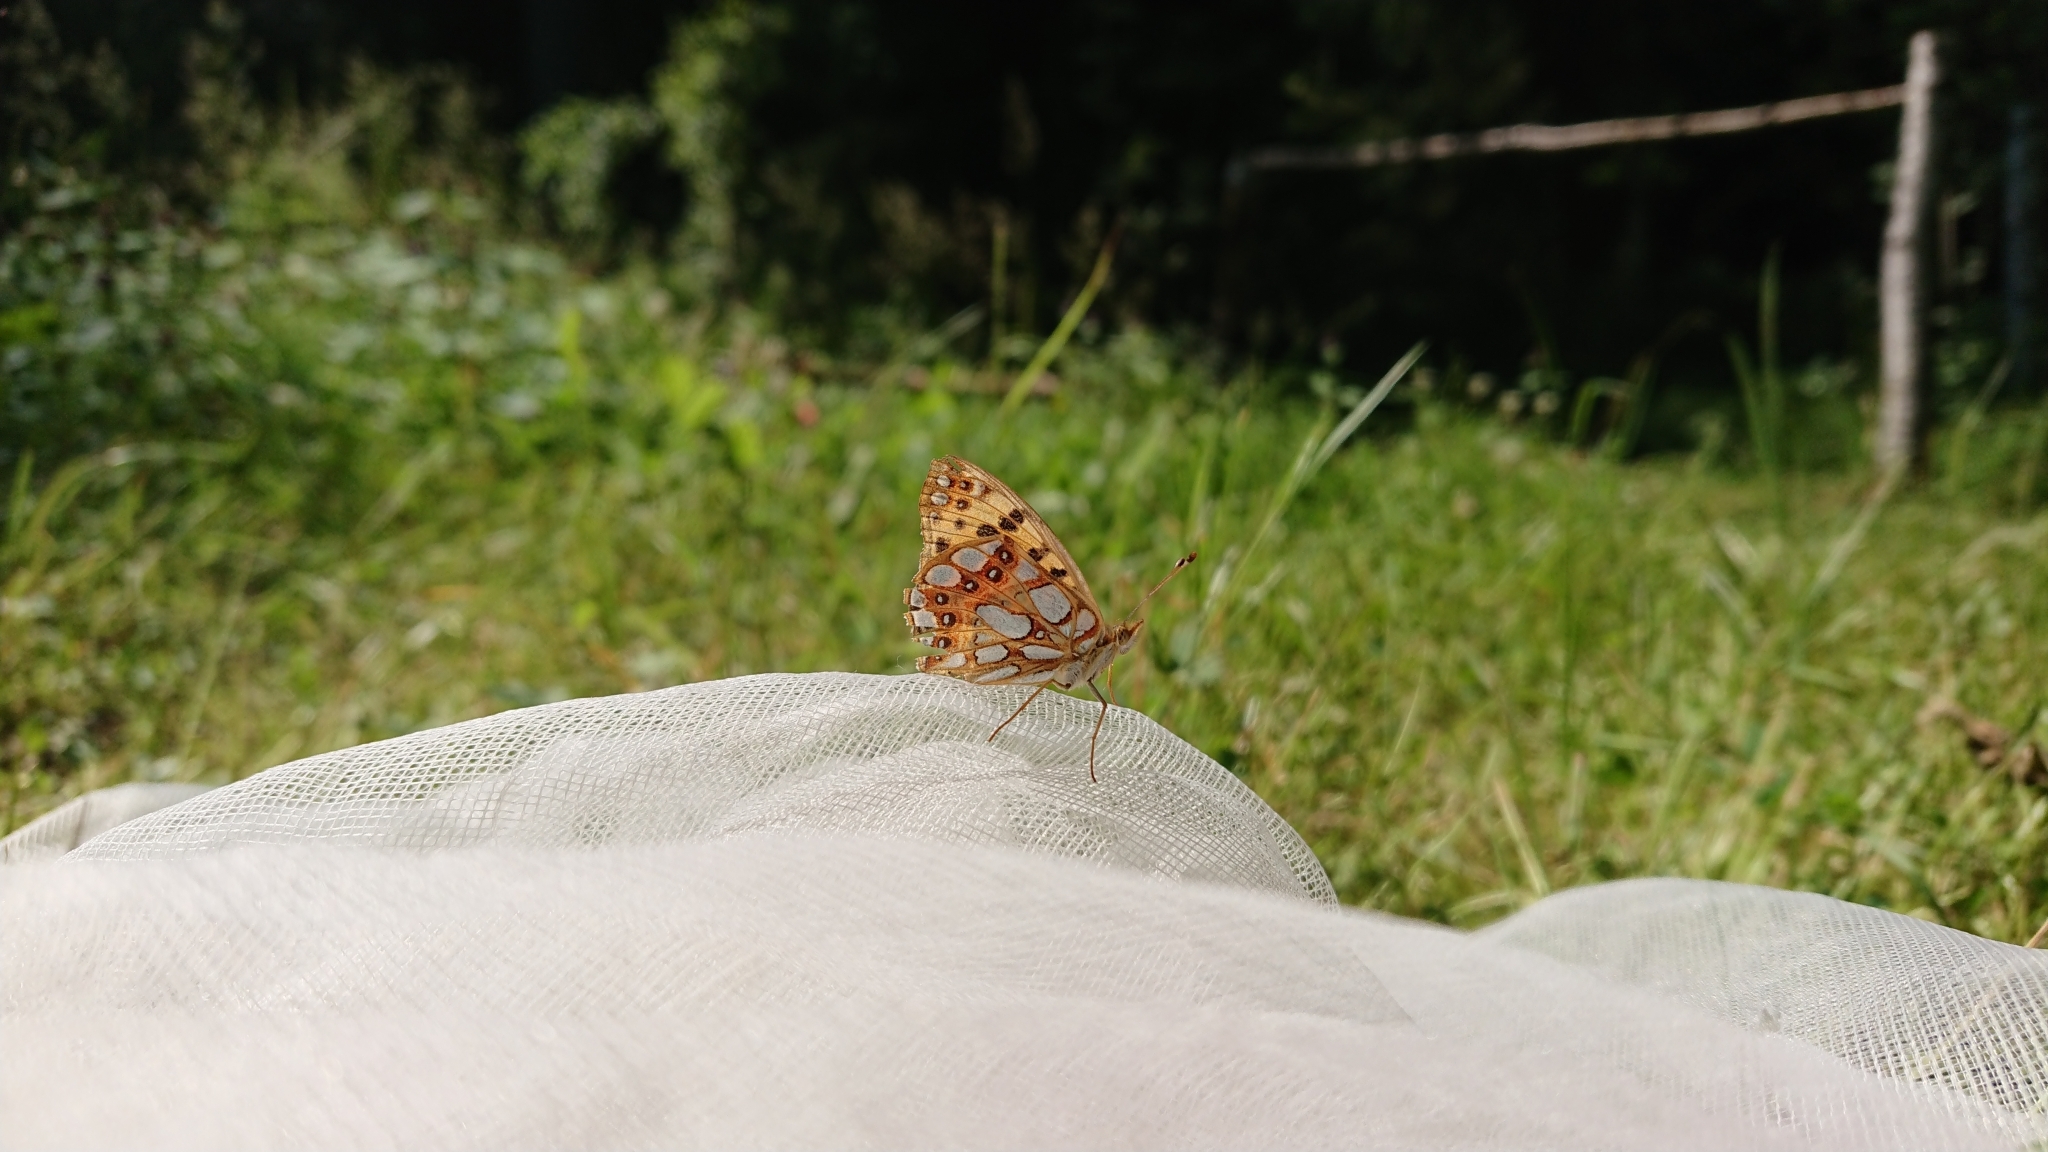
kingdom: Animalia
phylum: Arthropoda
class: Insecta
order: Lepidoptera
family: Nymphalidae
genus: Issoria
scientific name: Issoria lathonia
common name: Queen of spain fritillary
